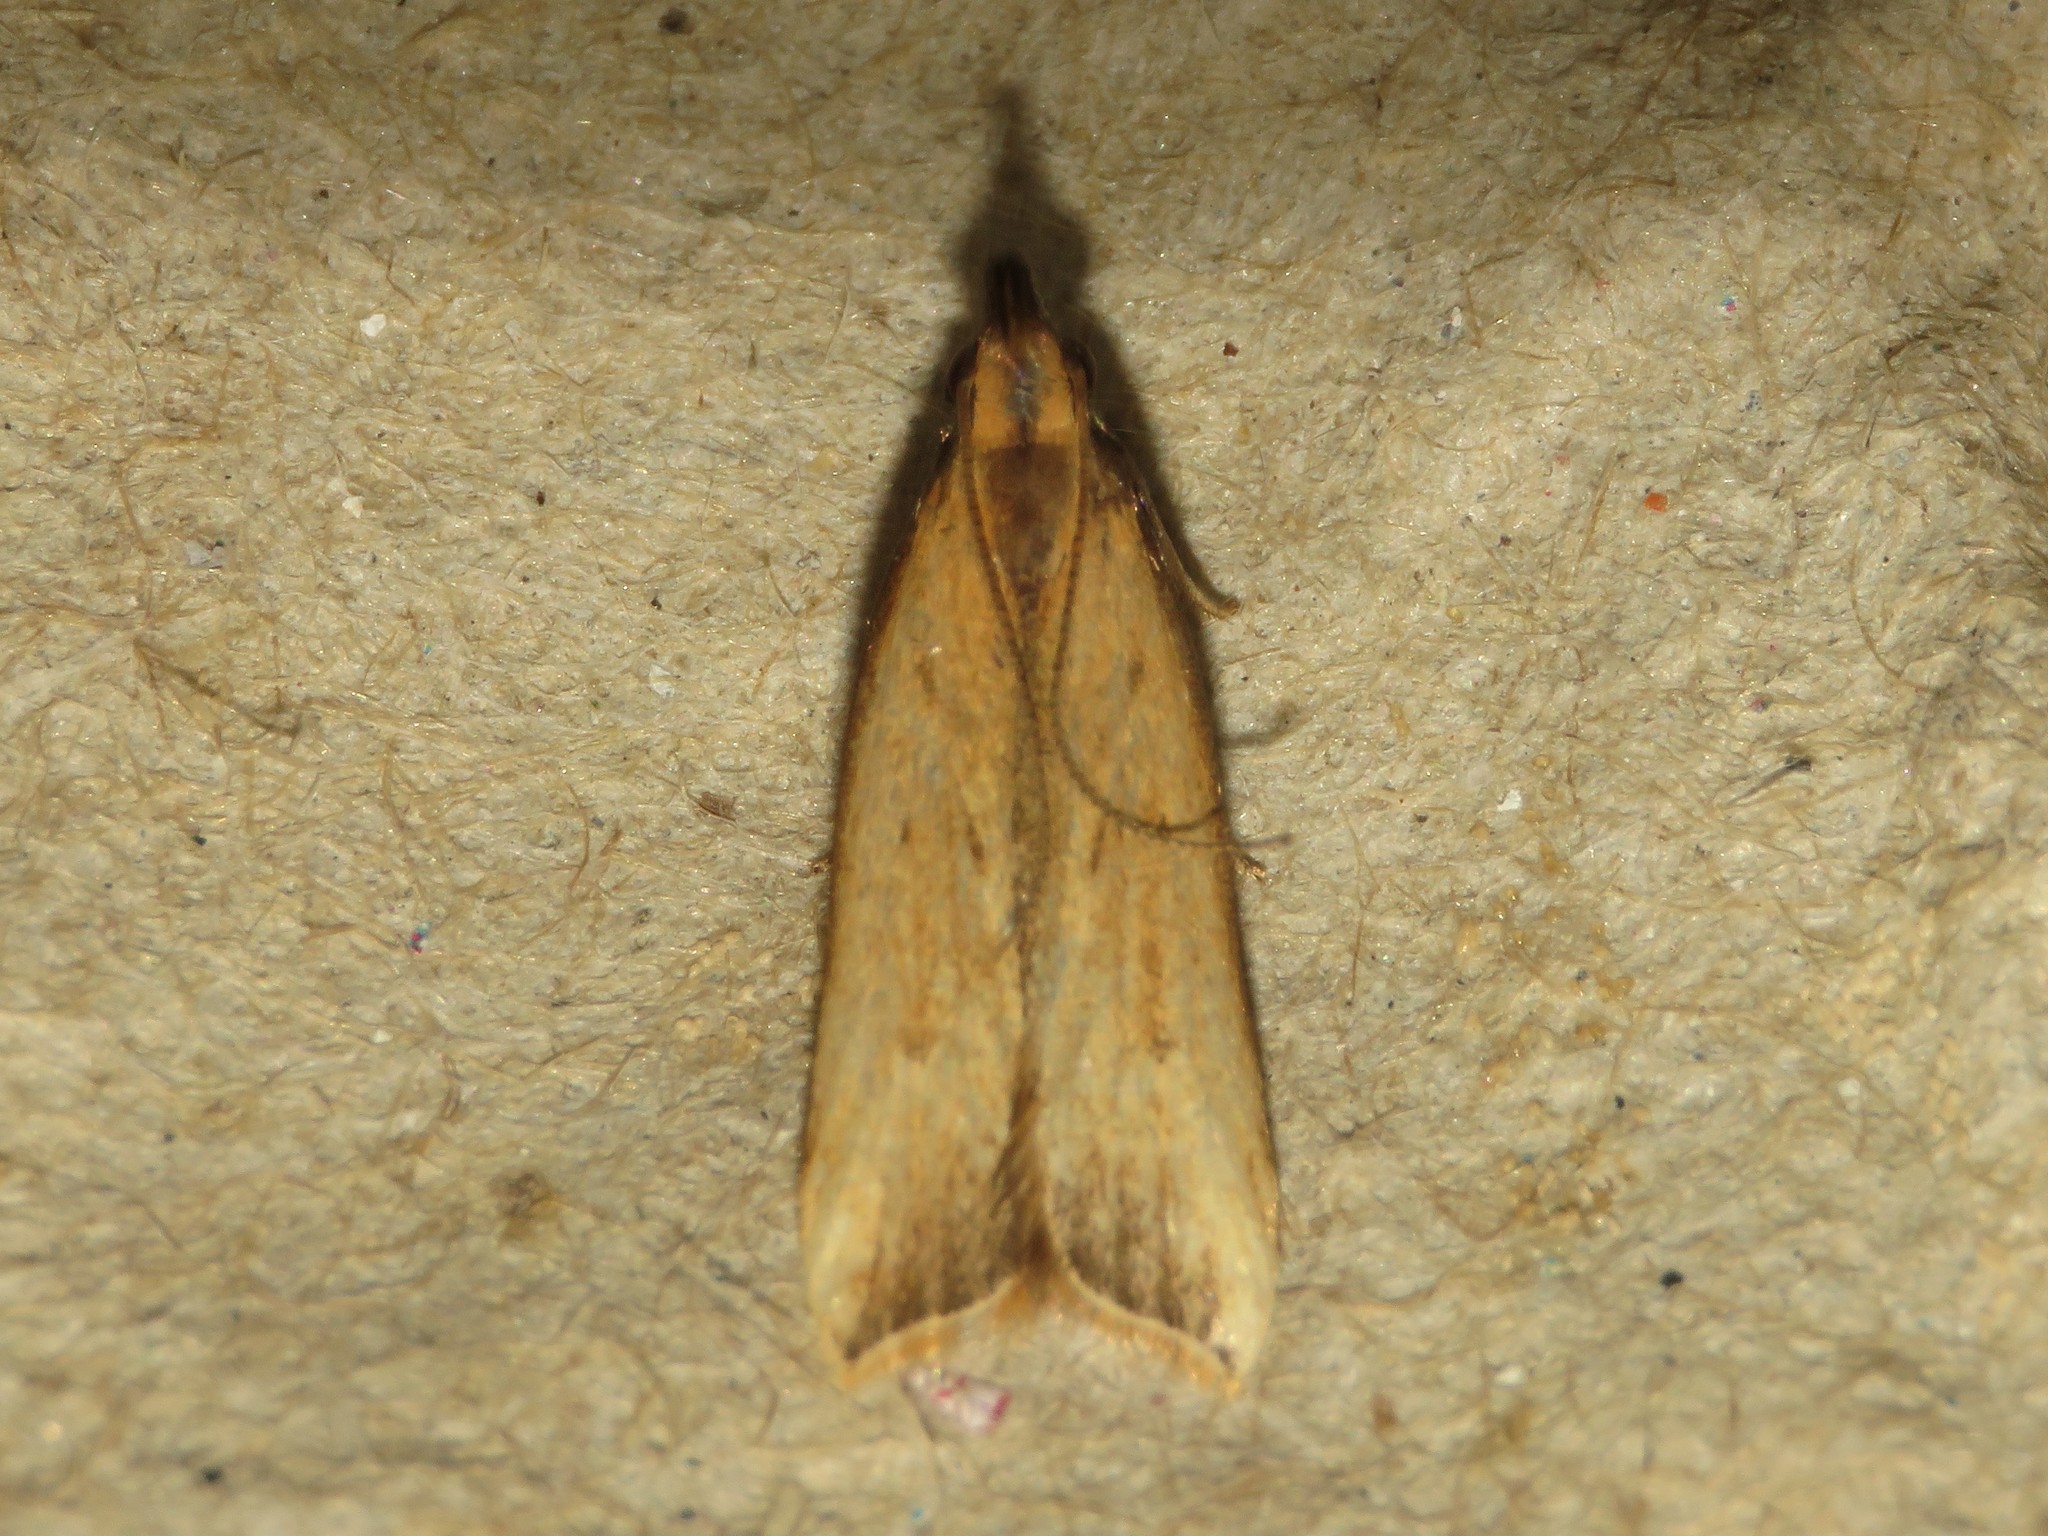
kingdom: Animalia
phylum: Arthropoda
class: Insecta
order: Lepidoptera
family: Gelechiidae
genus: Dichomeris
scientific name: Dichomeris heriguronis
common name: Black-edged dichomeris moth
